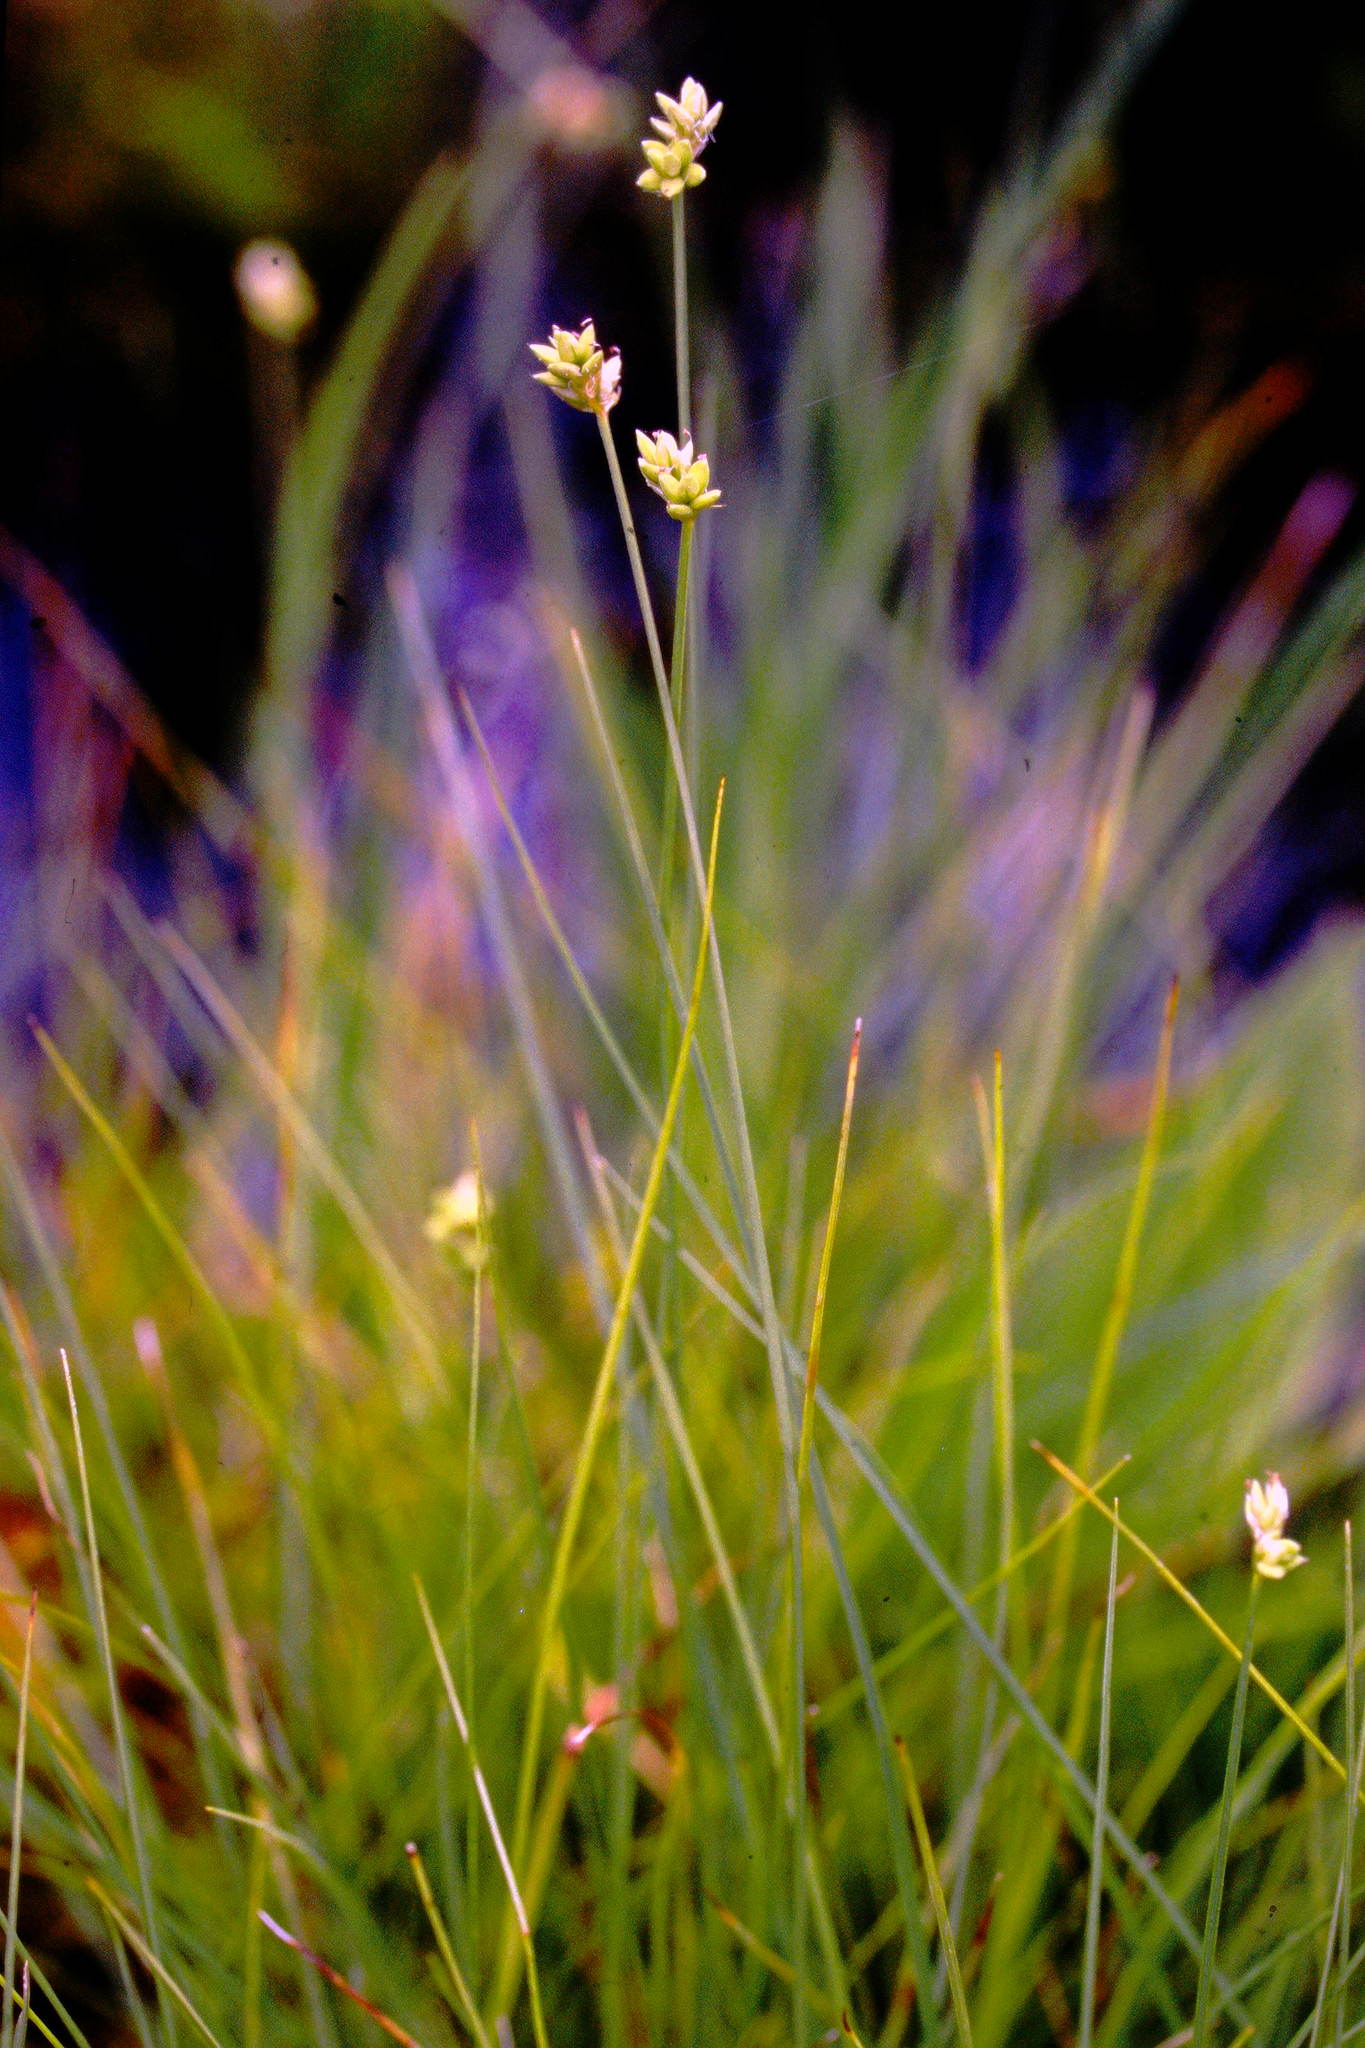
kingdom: Plantae
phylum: Tracheophyta
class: Liliopsida
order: Poales
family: Cyperaceae
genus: Carex
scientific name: Carex tenuiflora
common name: Sparse-flowered sedge
